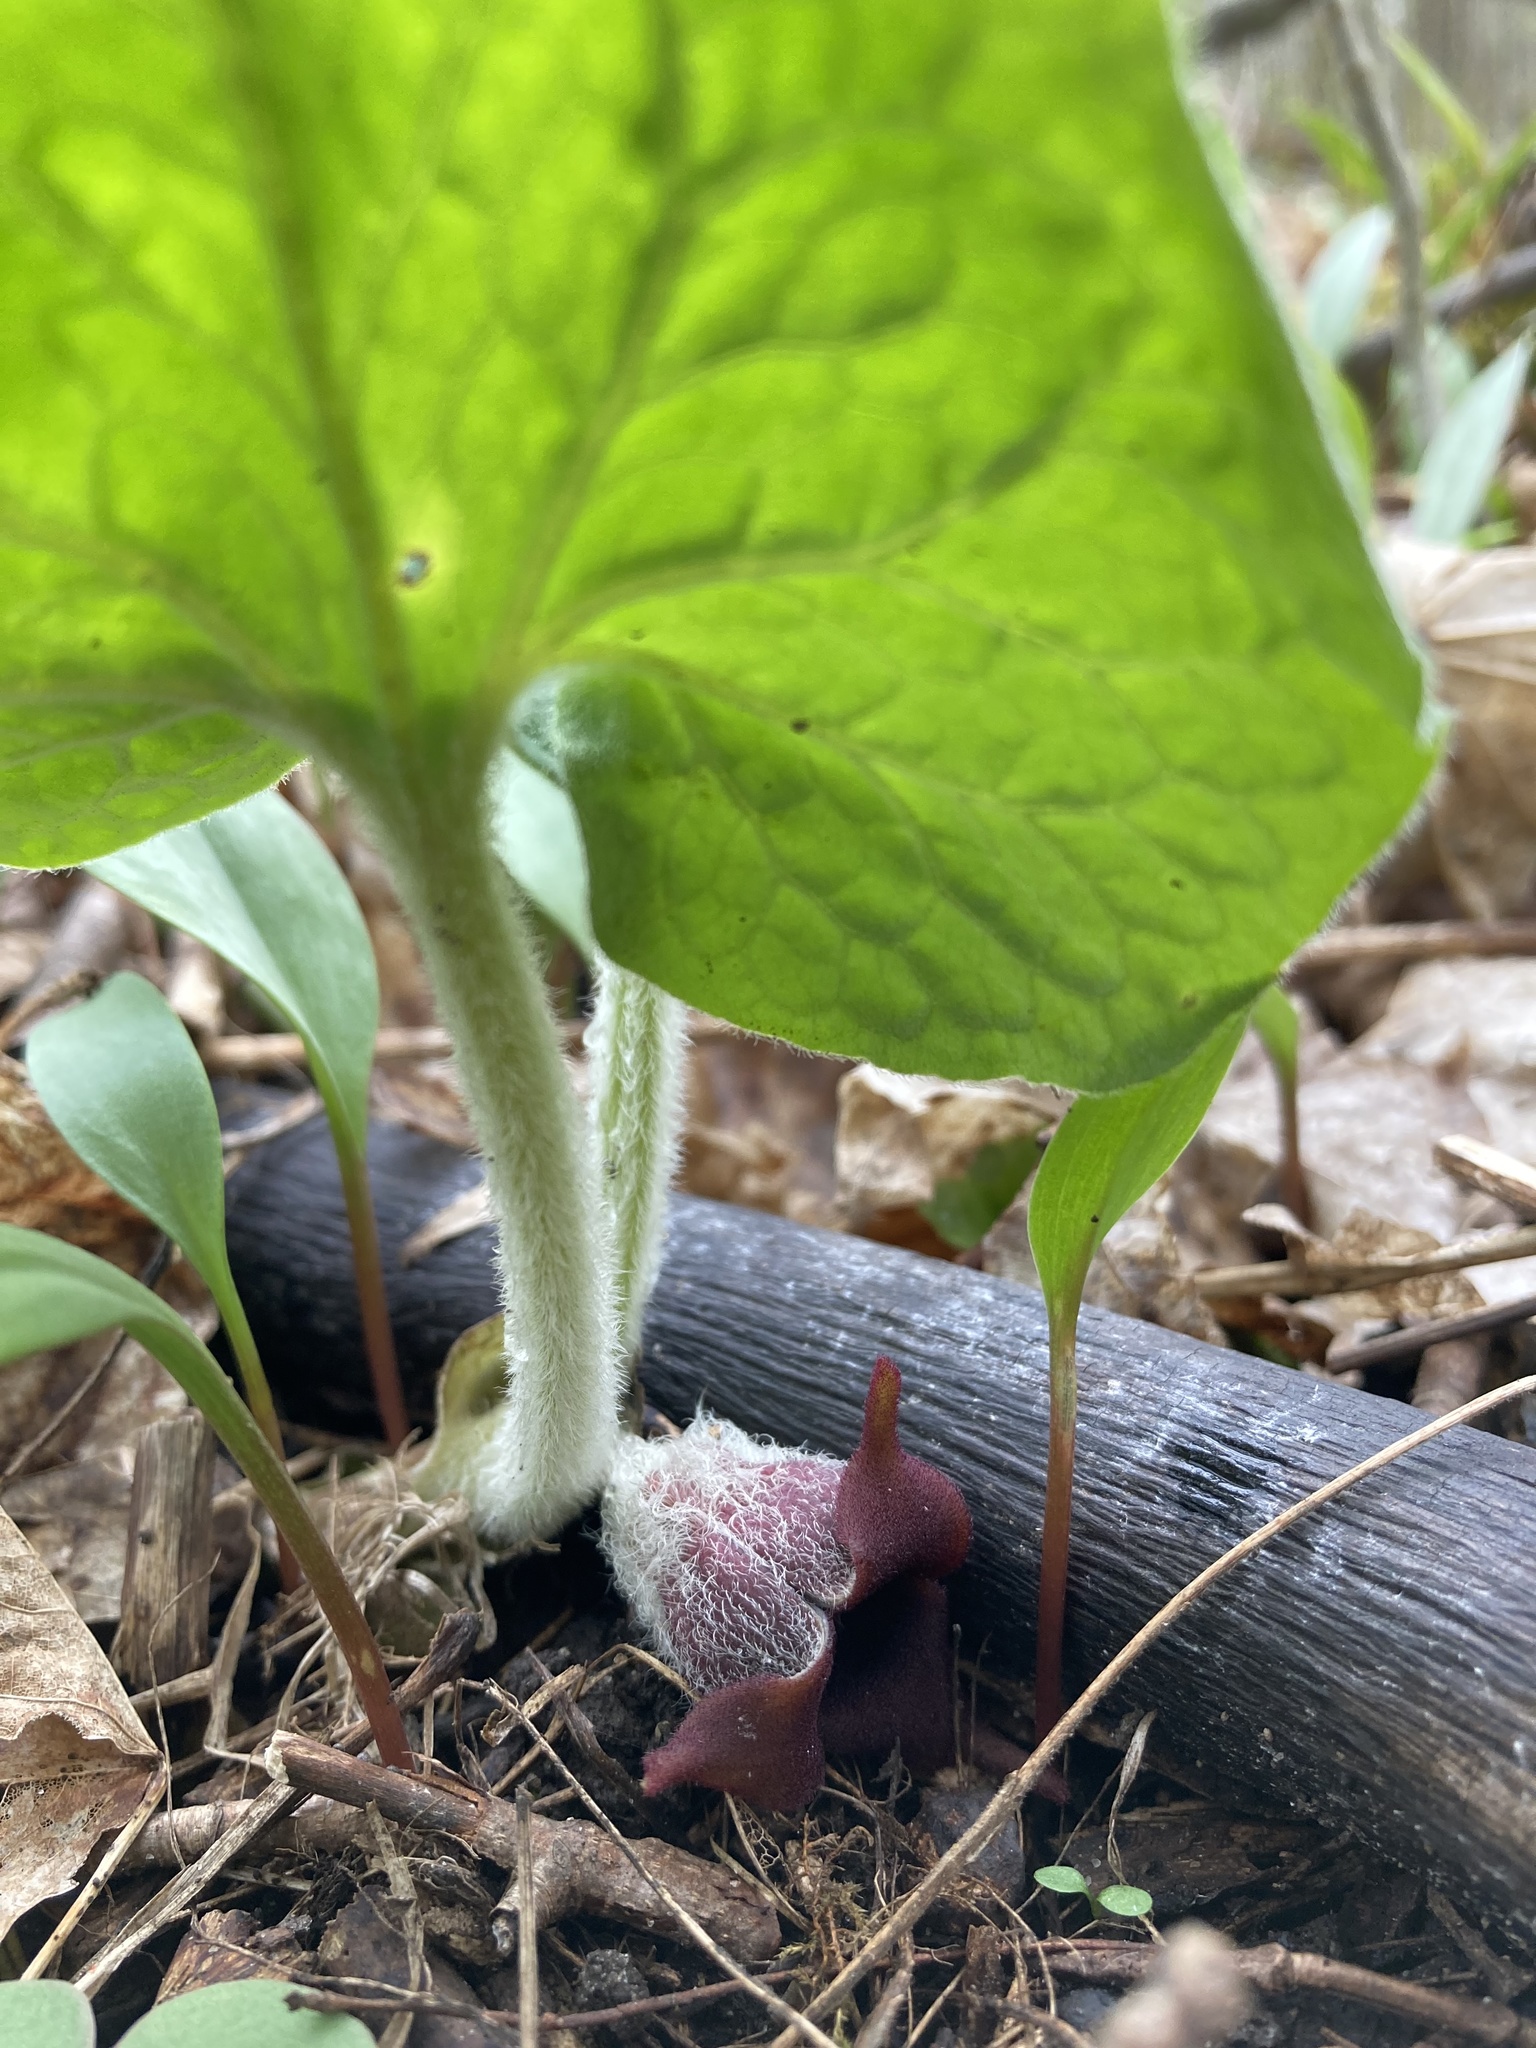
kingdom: Plantae
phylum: Tracheophyta
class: Magnoliopsida
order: Piperales
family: Aristolochiaceae
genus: Asarum
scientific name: Asarum canadense
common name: Wild ginger
